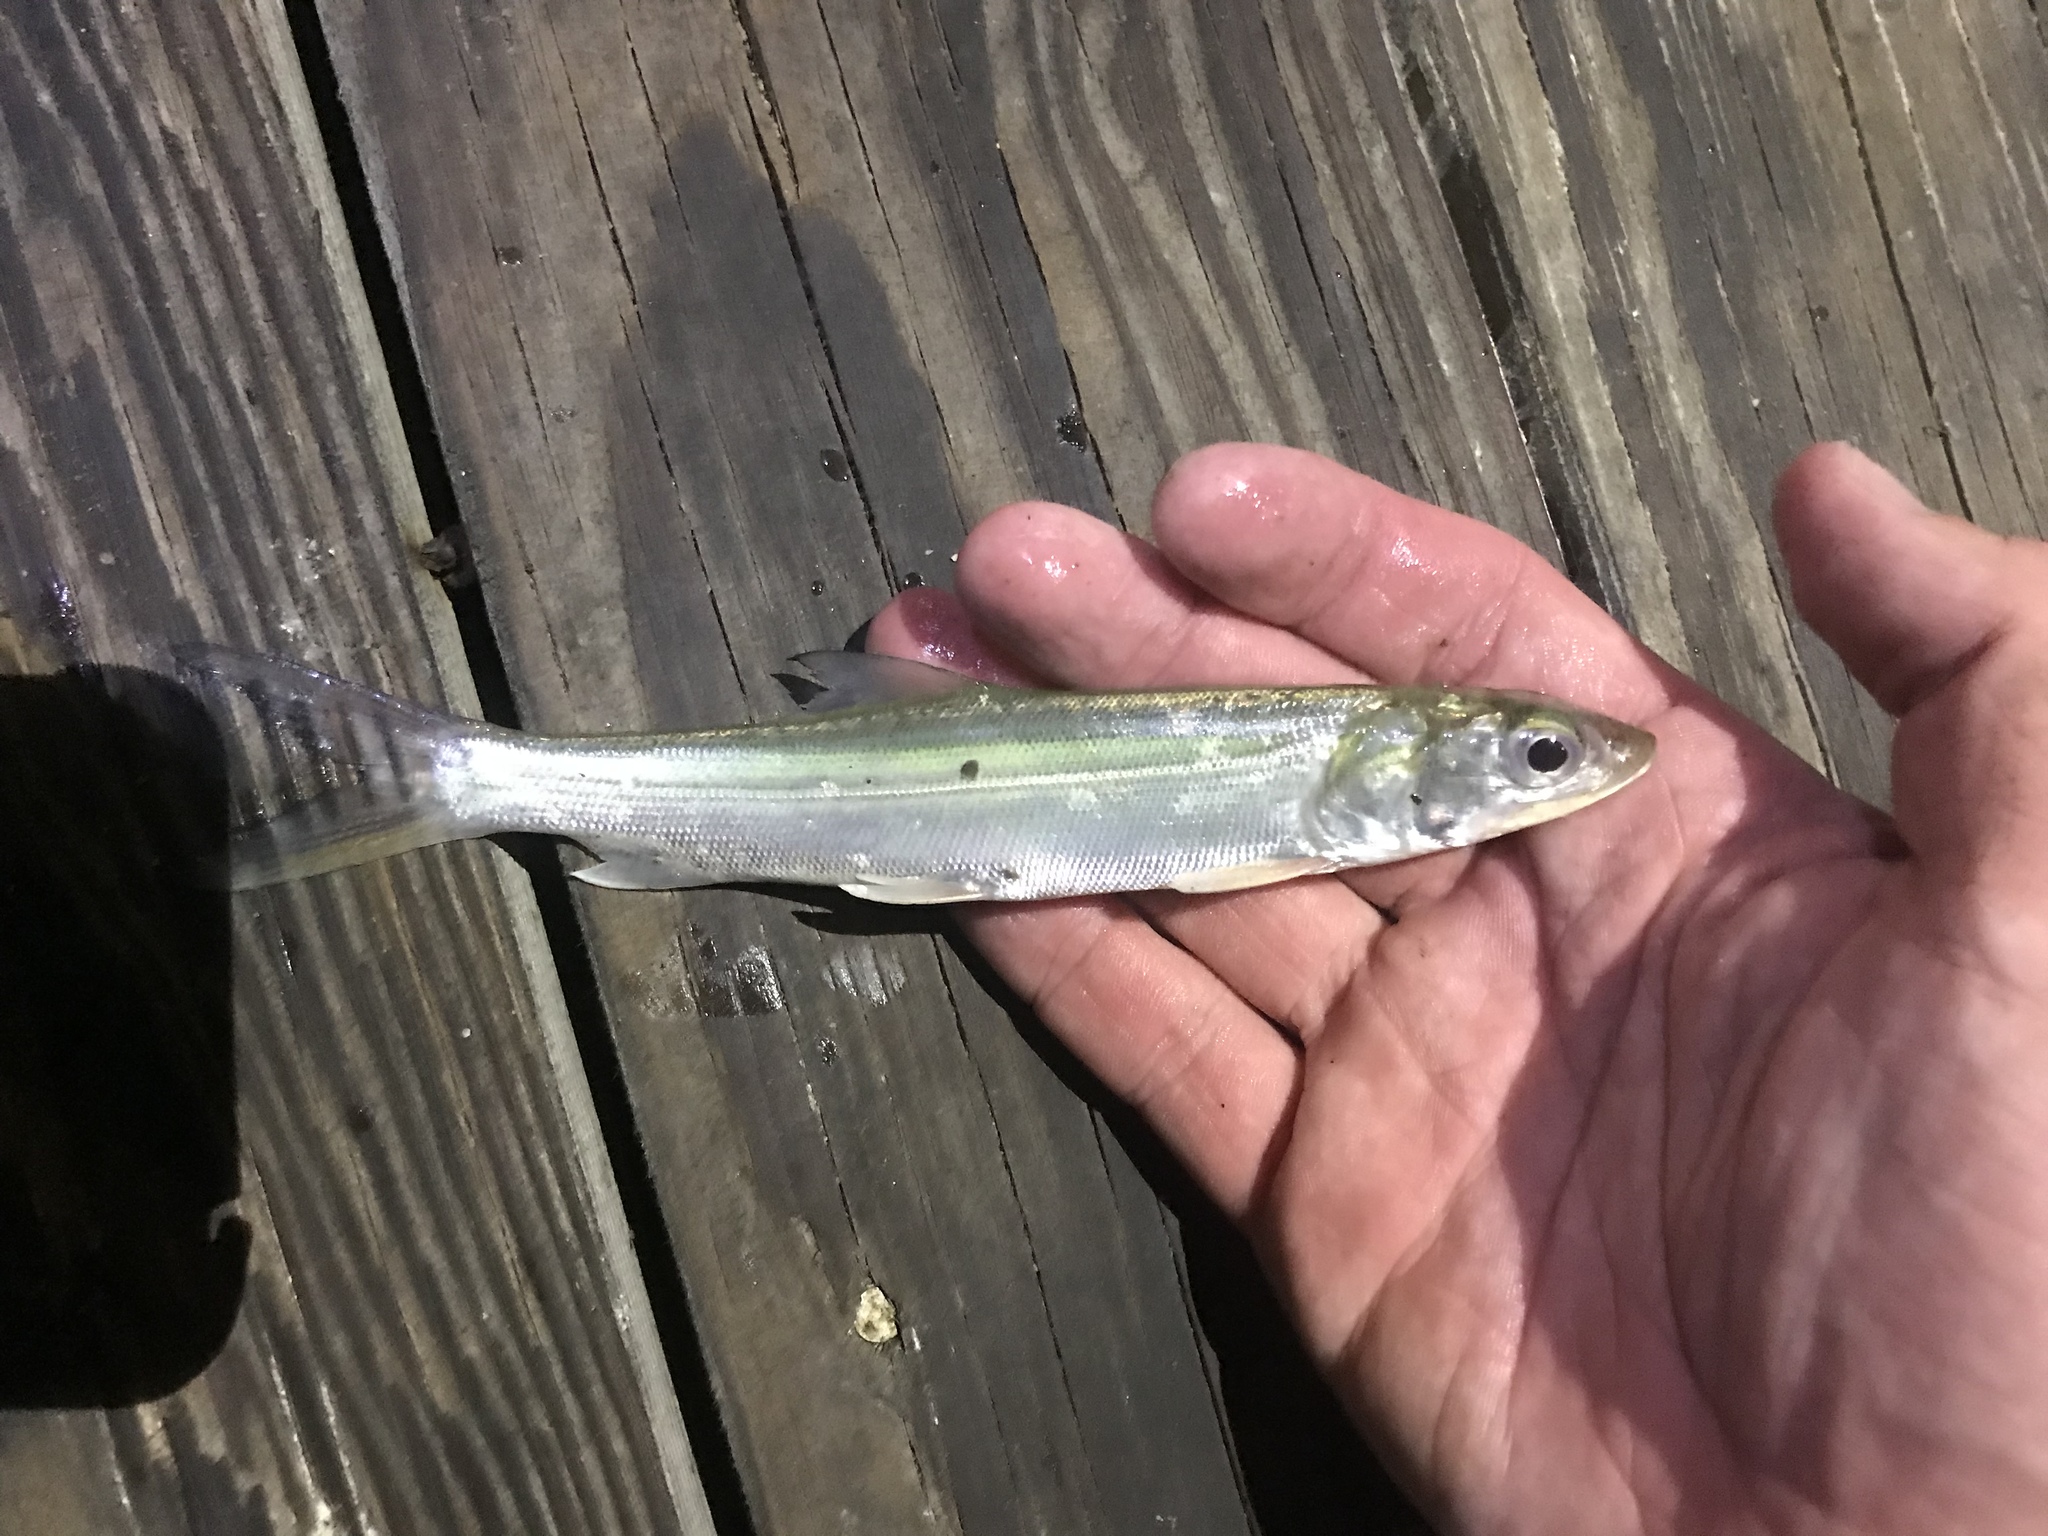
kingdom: Animalia
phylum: Chordata
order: Elopiformes
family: Elopidae
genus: Elops
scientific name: Elops saurus
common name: Ladyfish
